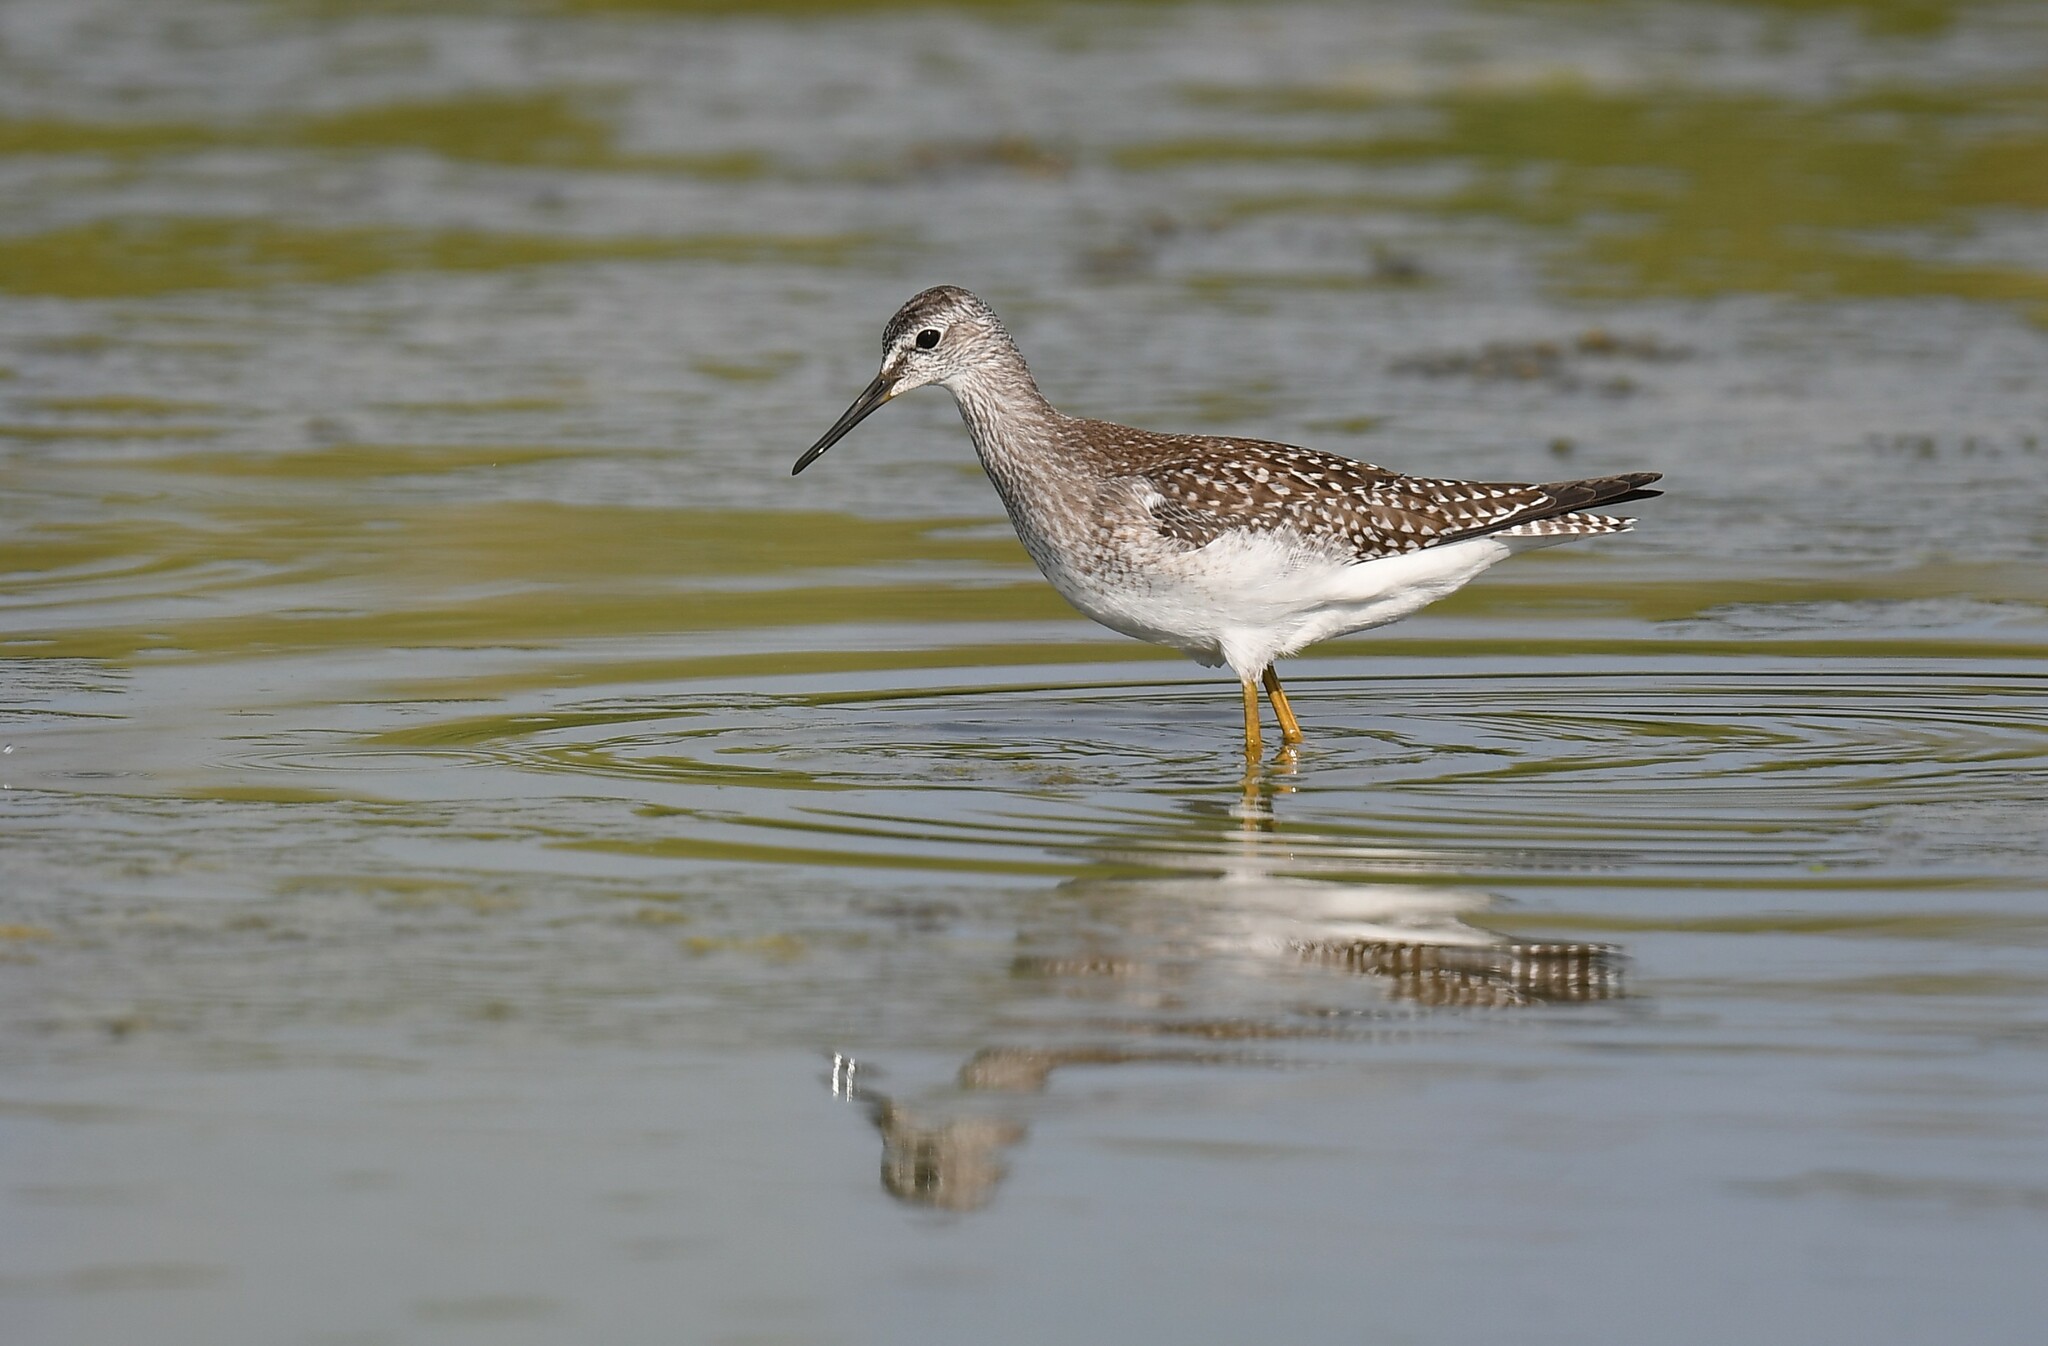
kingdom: Animalia
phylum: Chordata
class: Aves
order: Charadriiformes
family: Scolopacidae
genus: Tringa
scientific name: Tringa melanoleuca
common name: Greater yellowlegs
